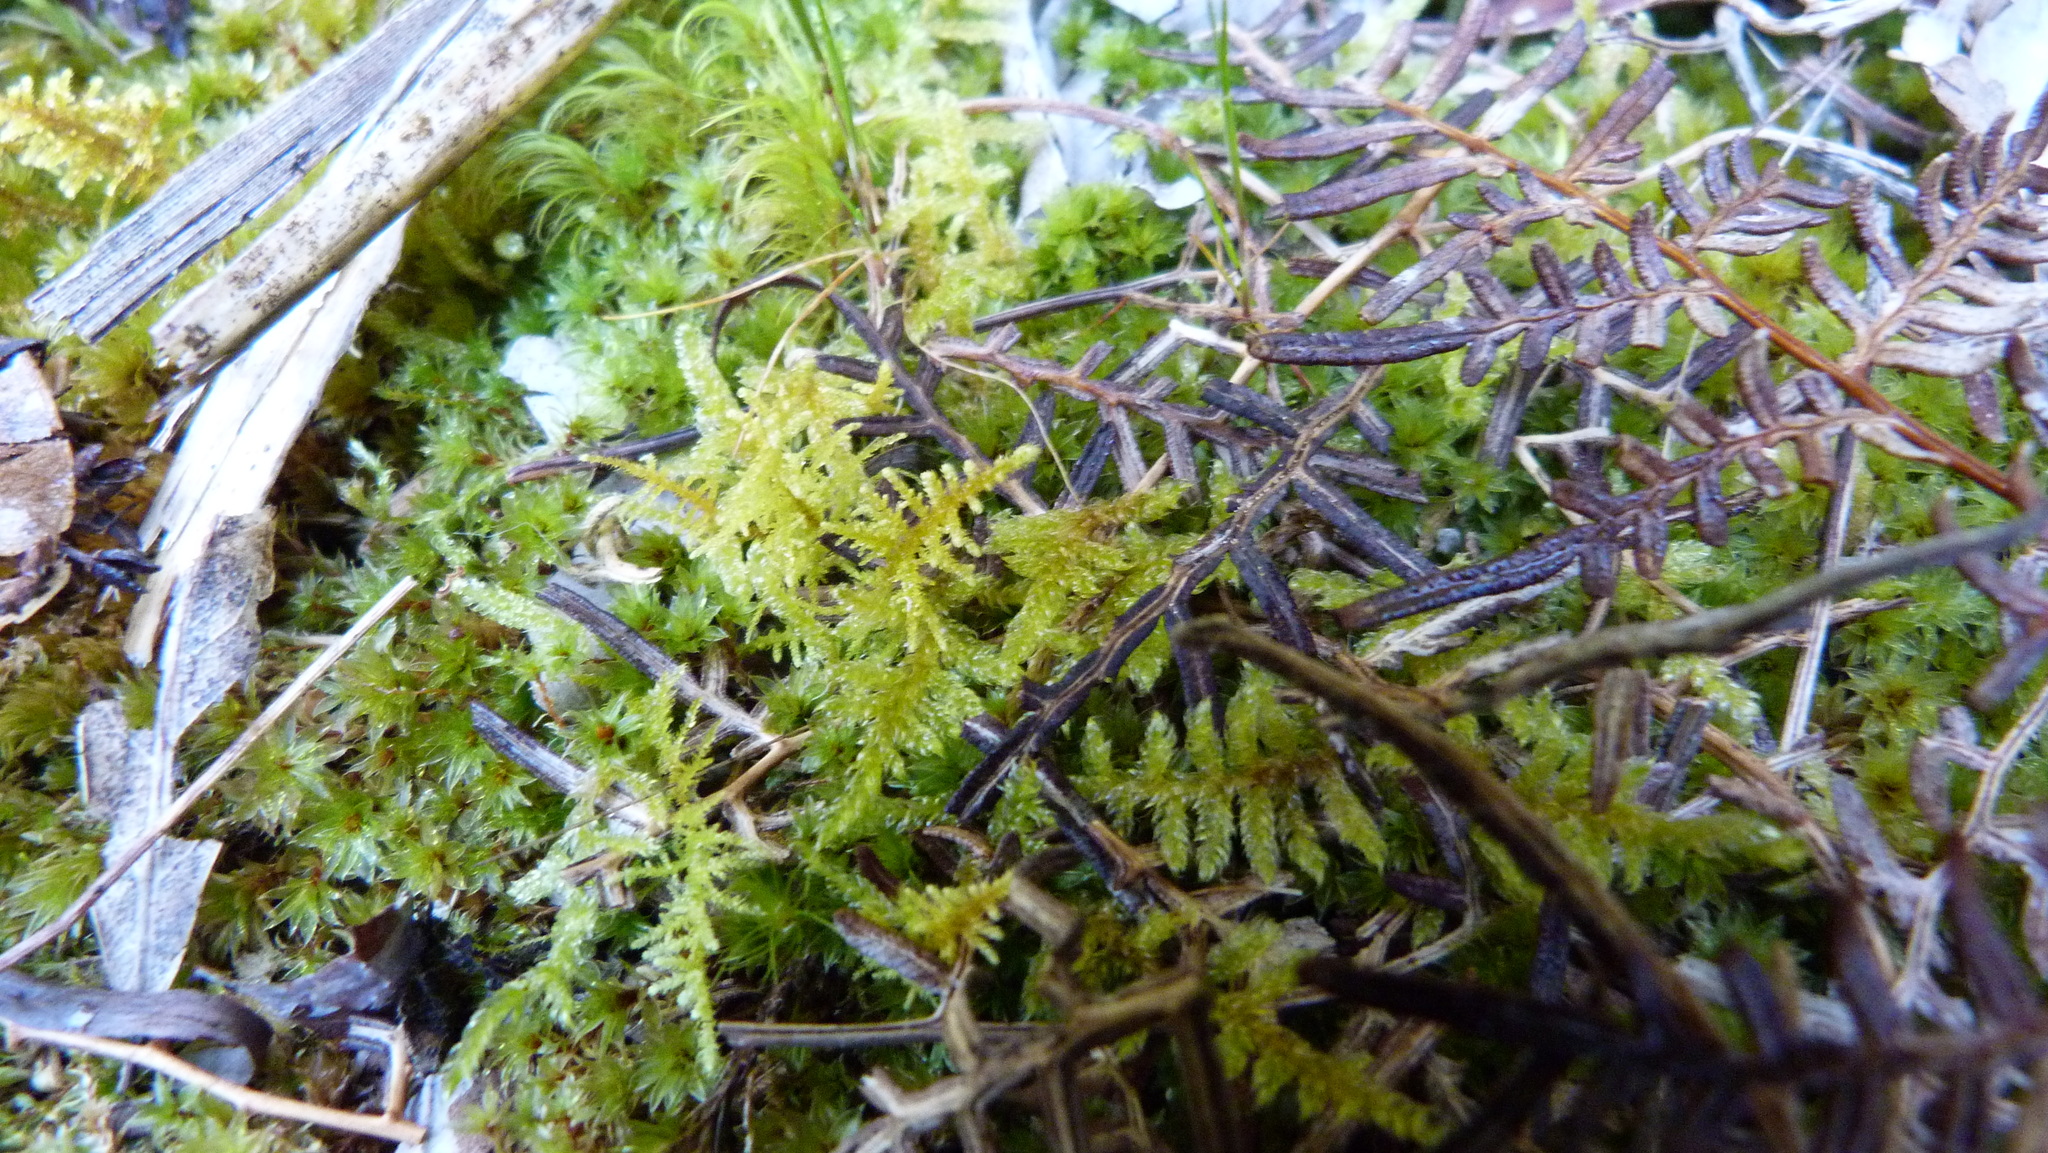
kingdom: Plantae
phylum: Bryophyta
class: Bryopsida
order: Hypnales
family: Thuidiaceae
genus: Thuidiopsis
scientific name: Thuidiopsis furfurosa
